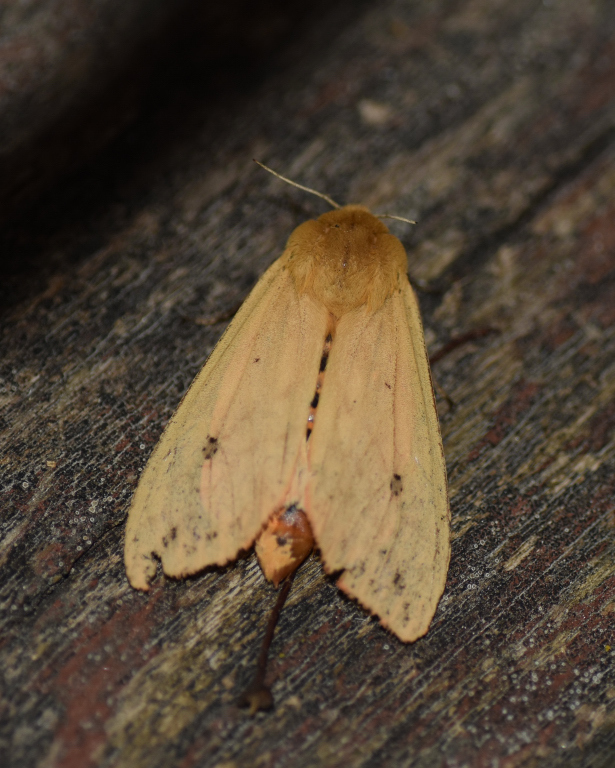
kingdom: Animalia
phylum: Arthropoda
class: Insecta
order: Lepidoptera
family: Erebidae
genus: Pyrrharctia
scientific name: Pyrrharctia isabella
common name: Isabella tiger moth
